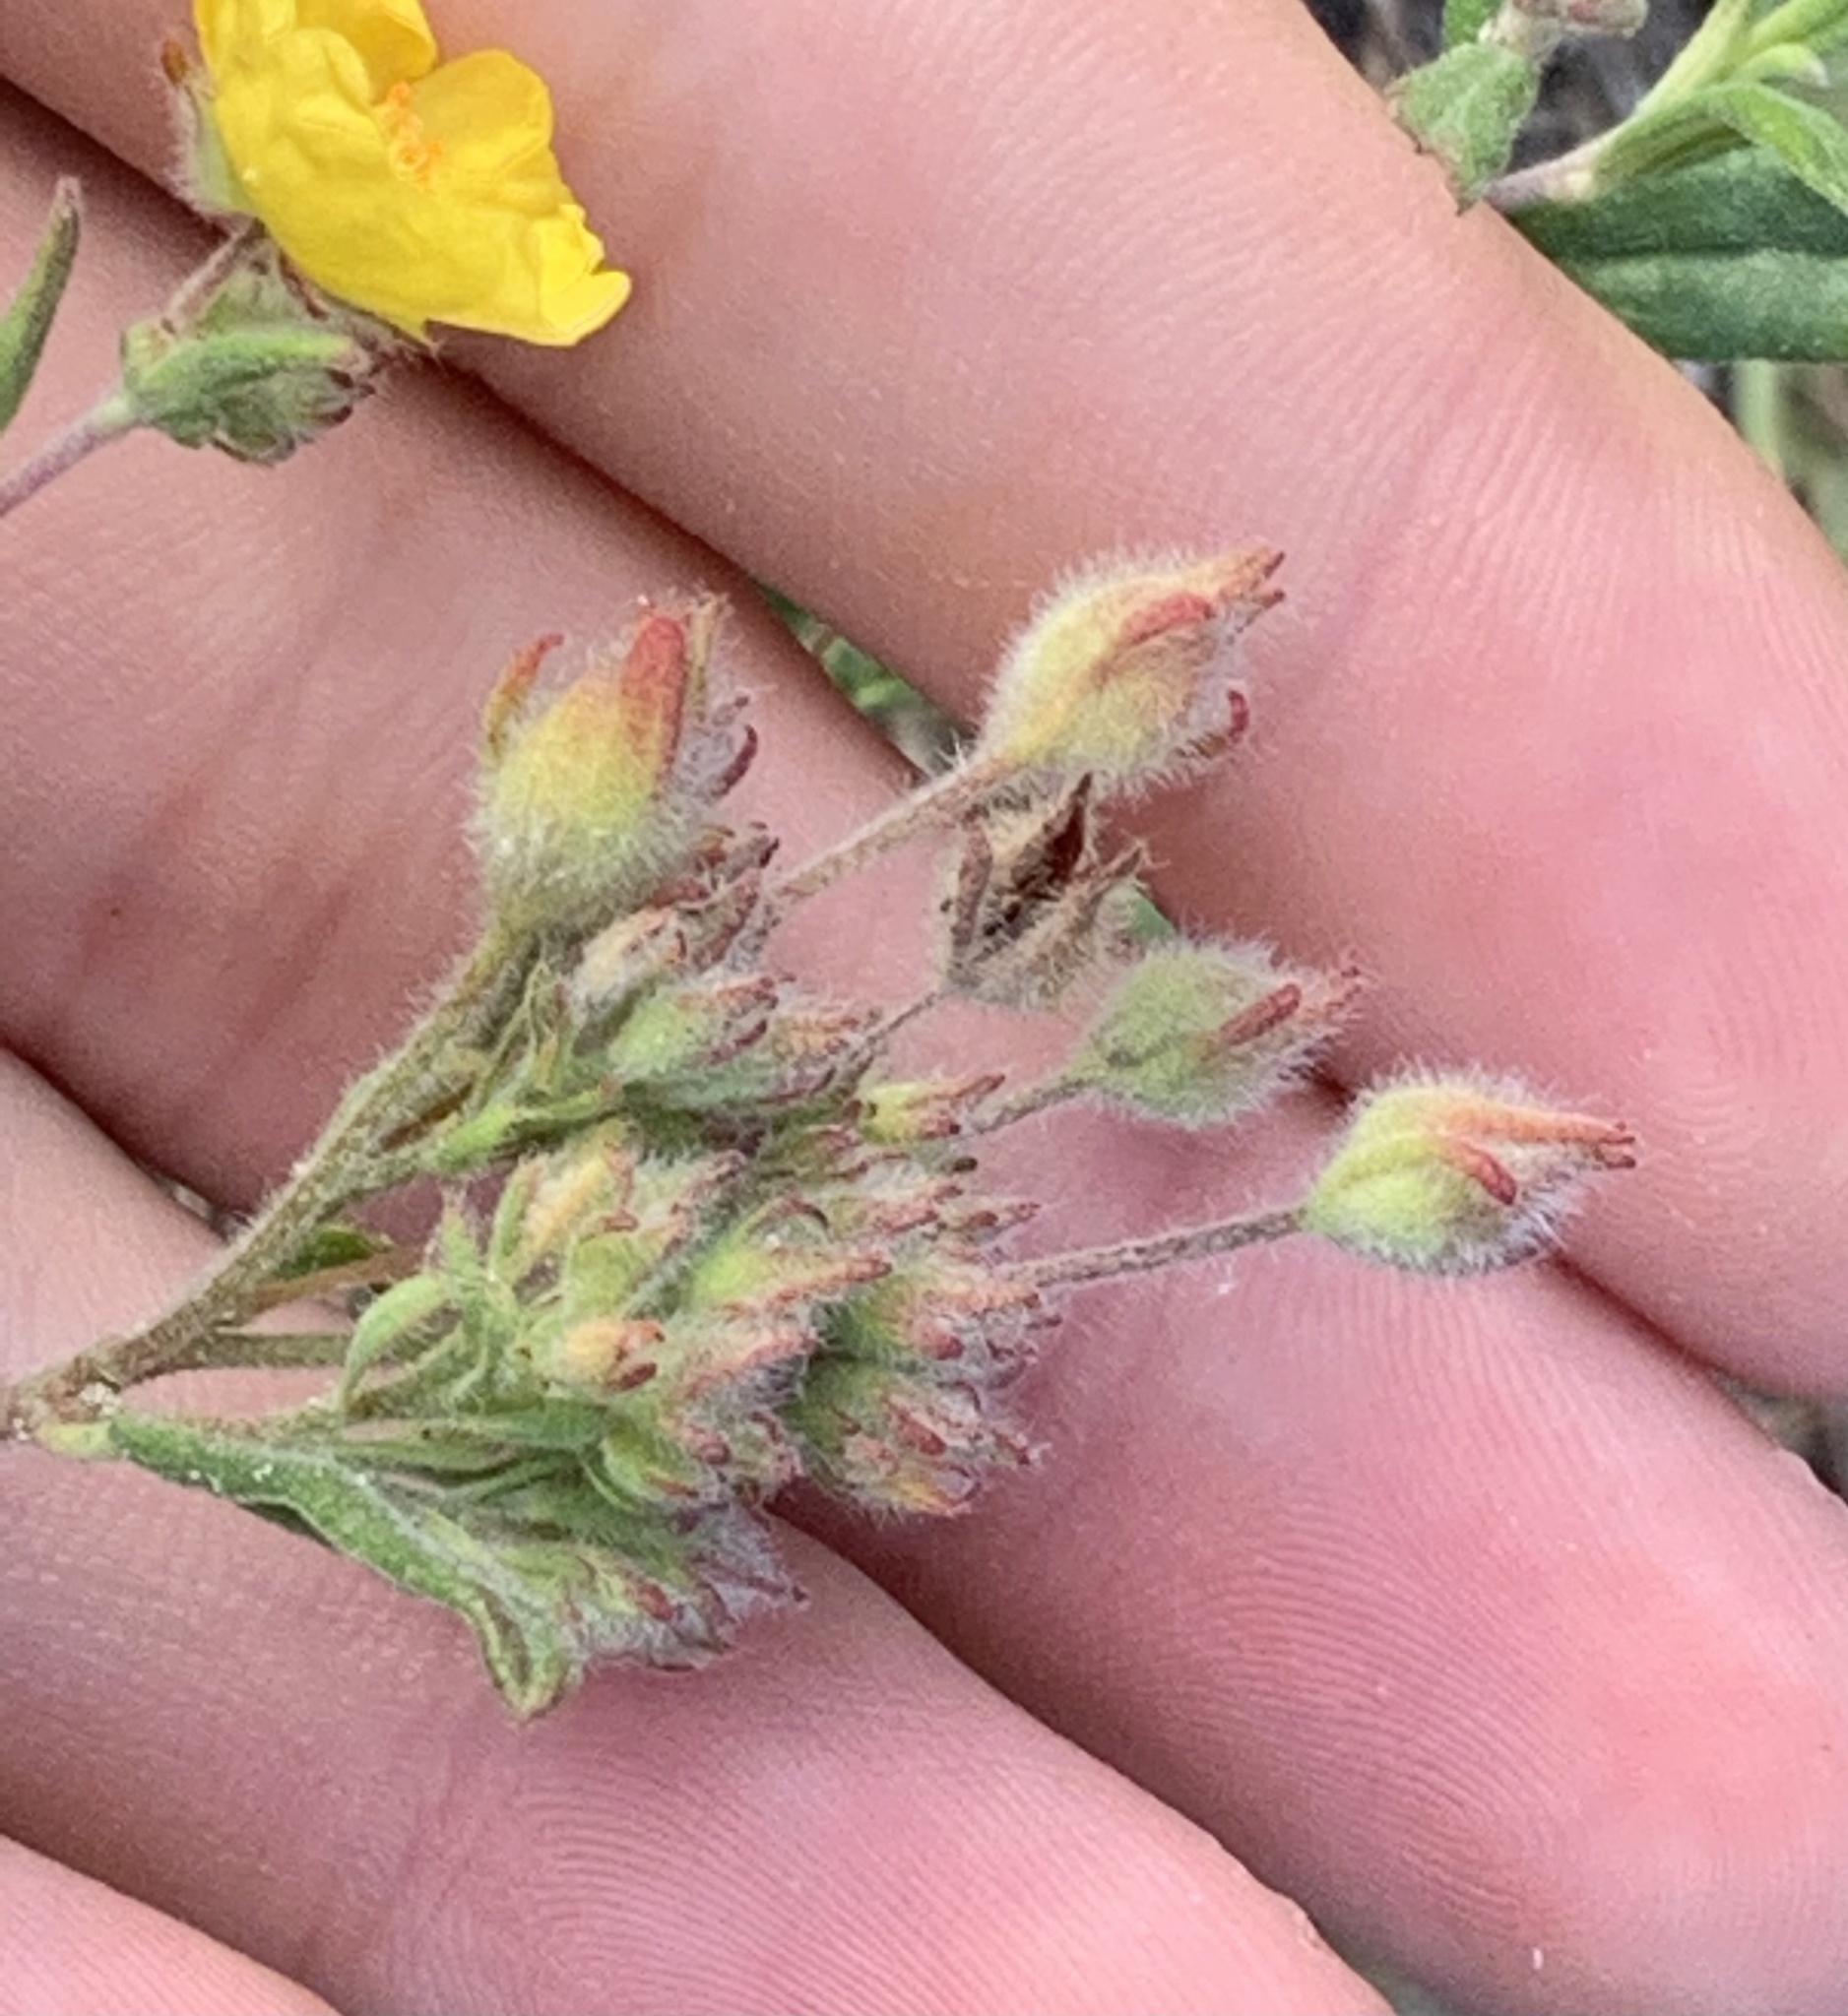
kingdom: Plantae
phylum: Tracheophyta
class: Magnoliopsida
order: Malvales
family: Cistaceae
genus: Crocanthemum
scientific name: Crocanthemum corymbosum
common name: Pinebarren sun-rose
